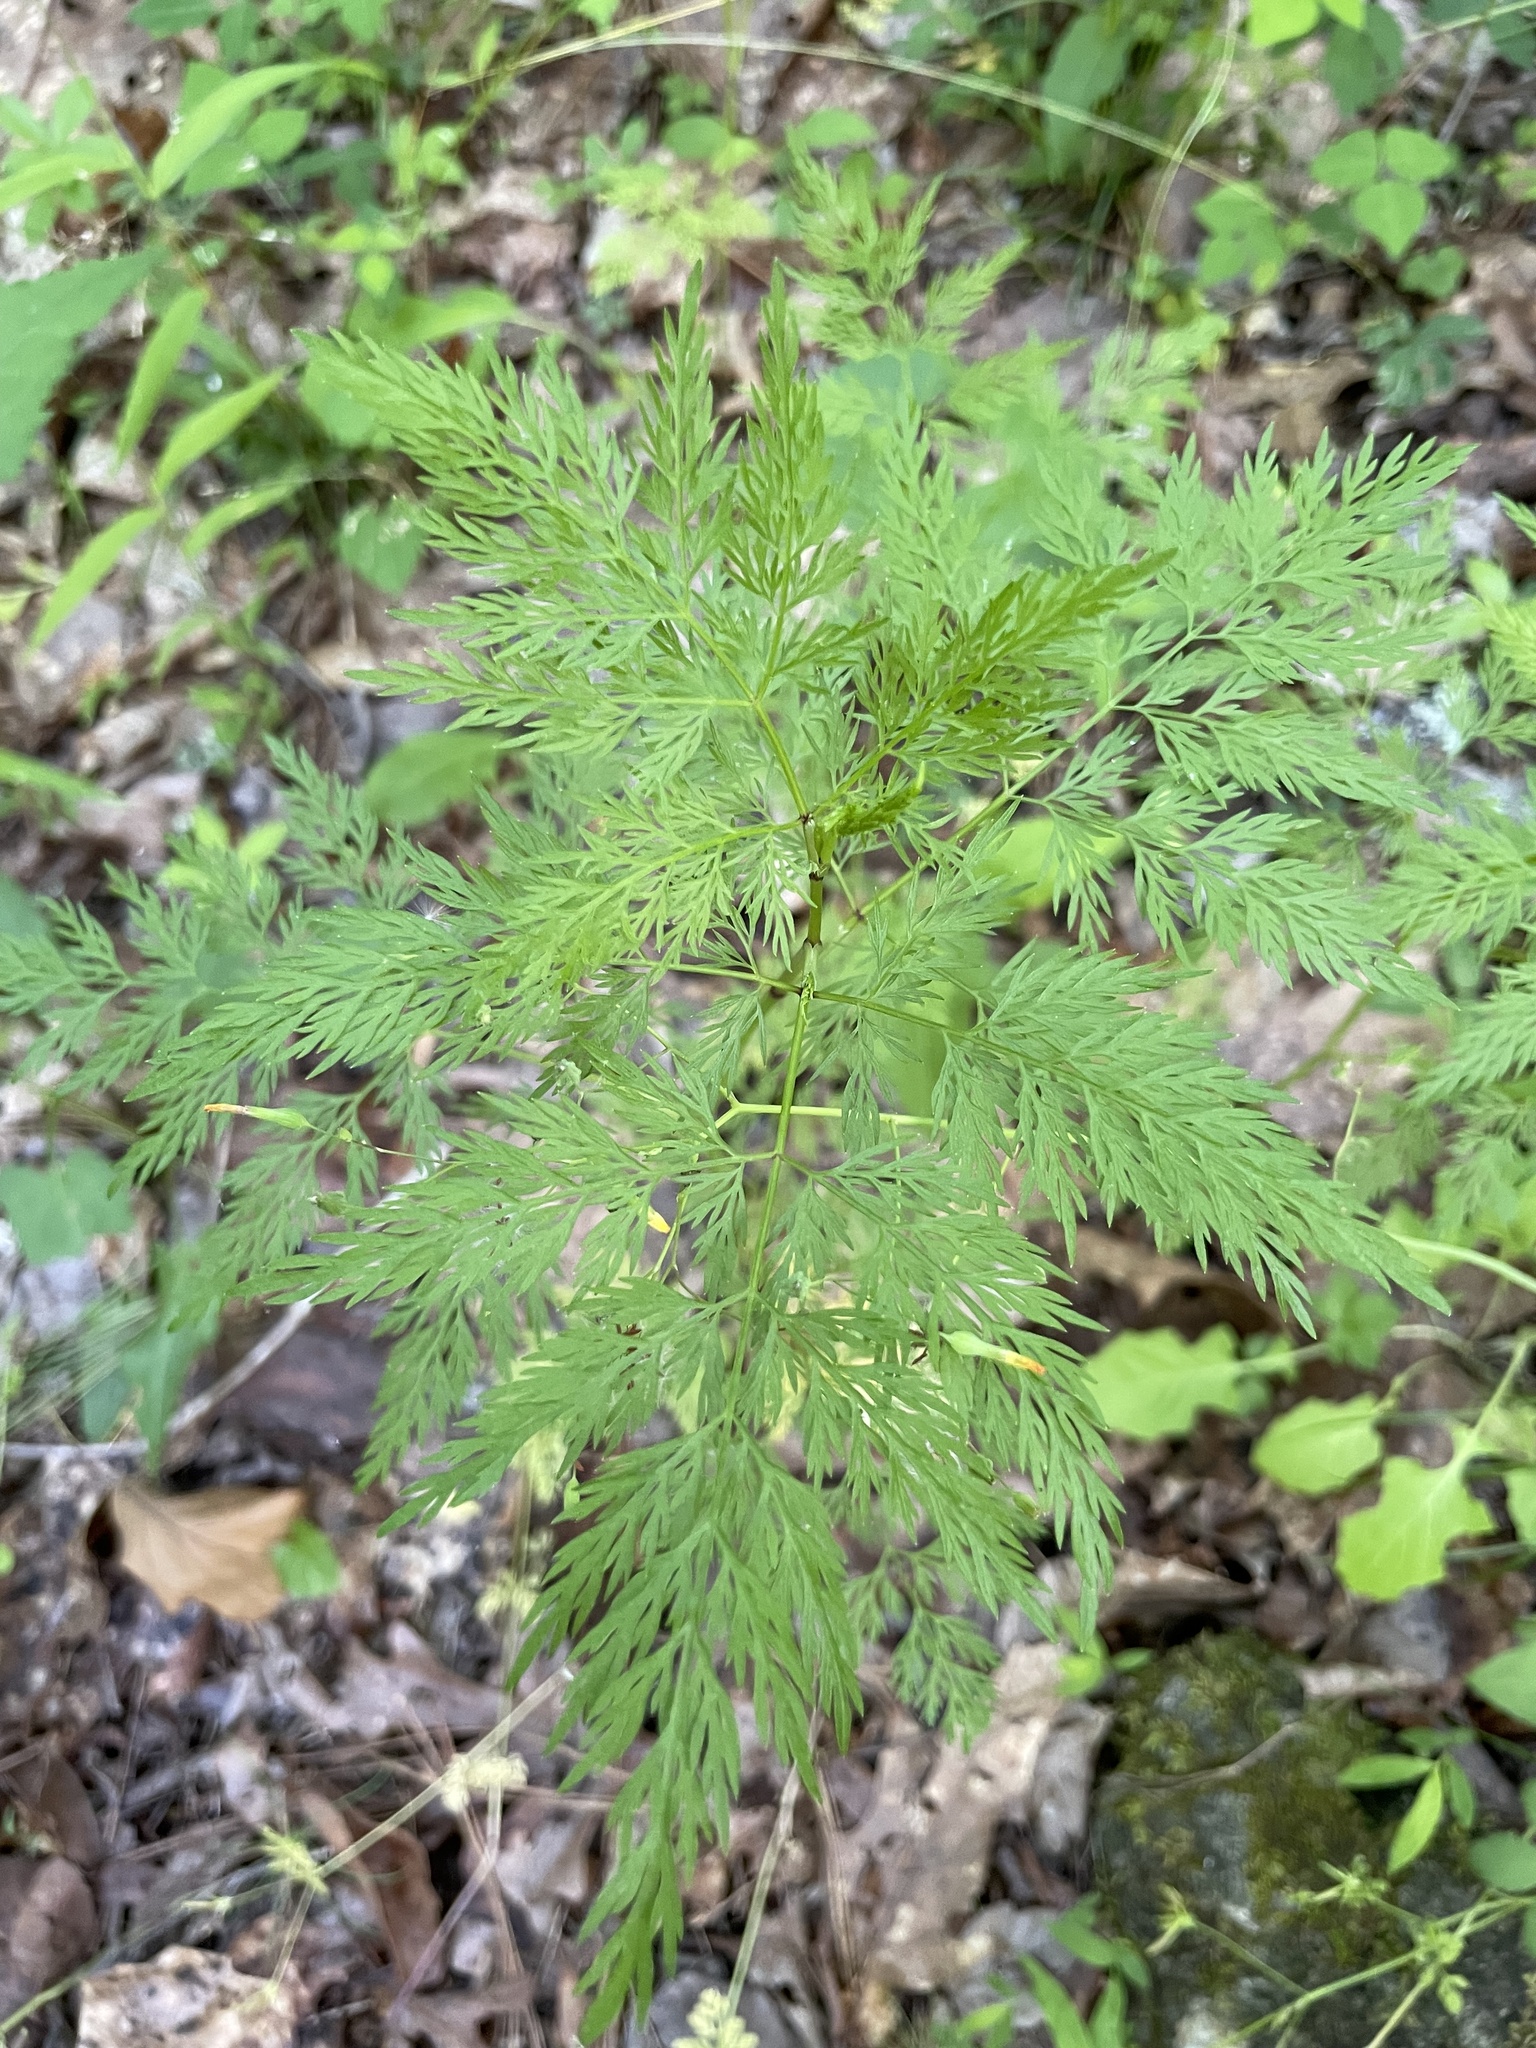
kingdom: Plantae
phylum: Tracheophyta
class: Magnoliopsida
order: Apiales
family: Apiaceae
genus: Trepocarpus
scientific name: Trepocarpus aethusae
